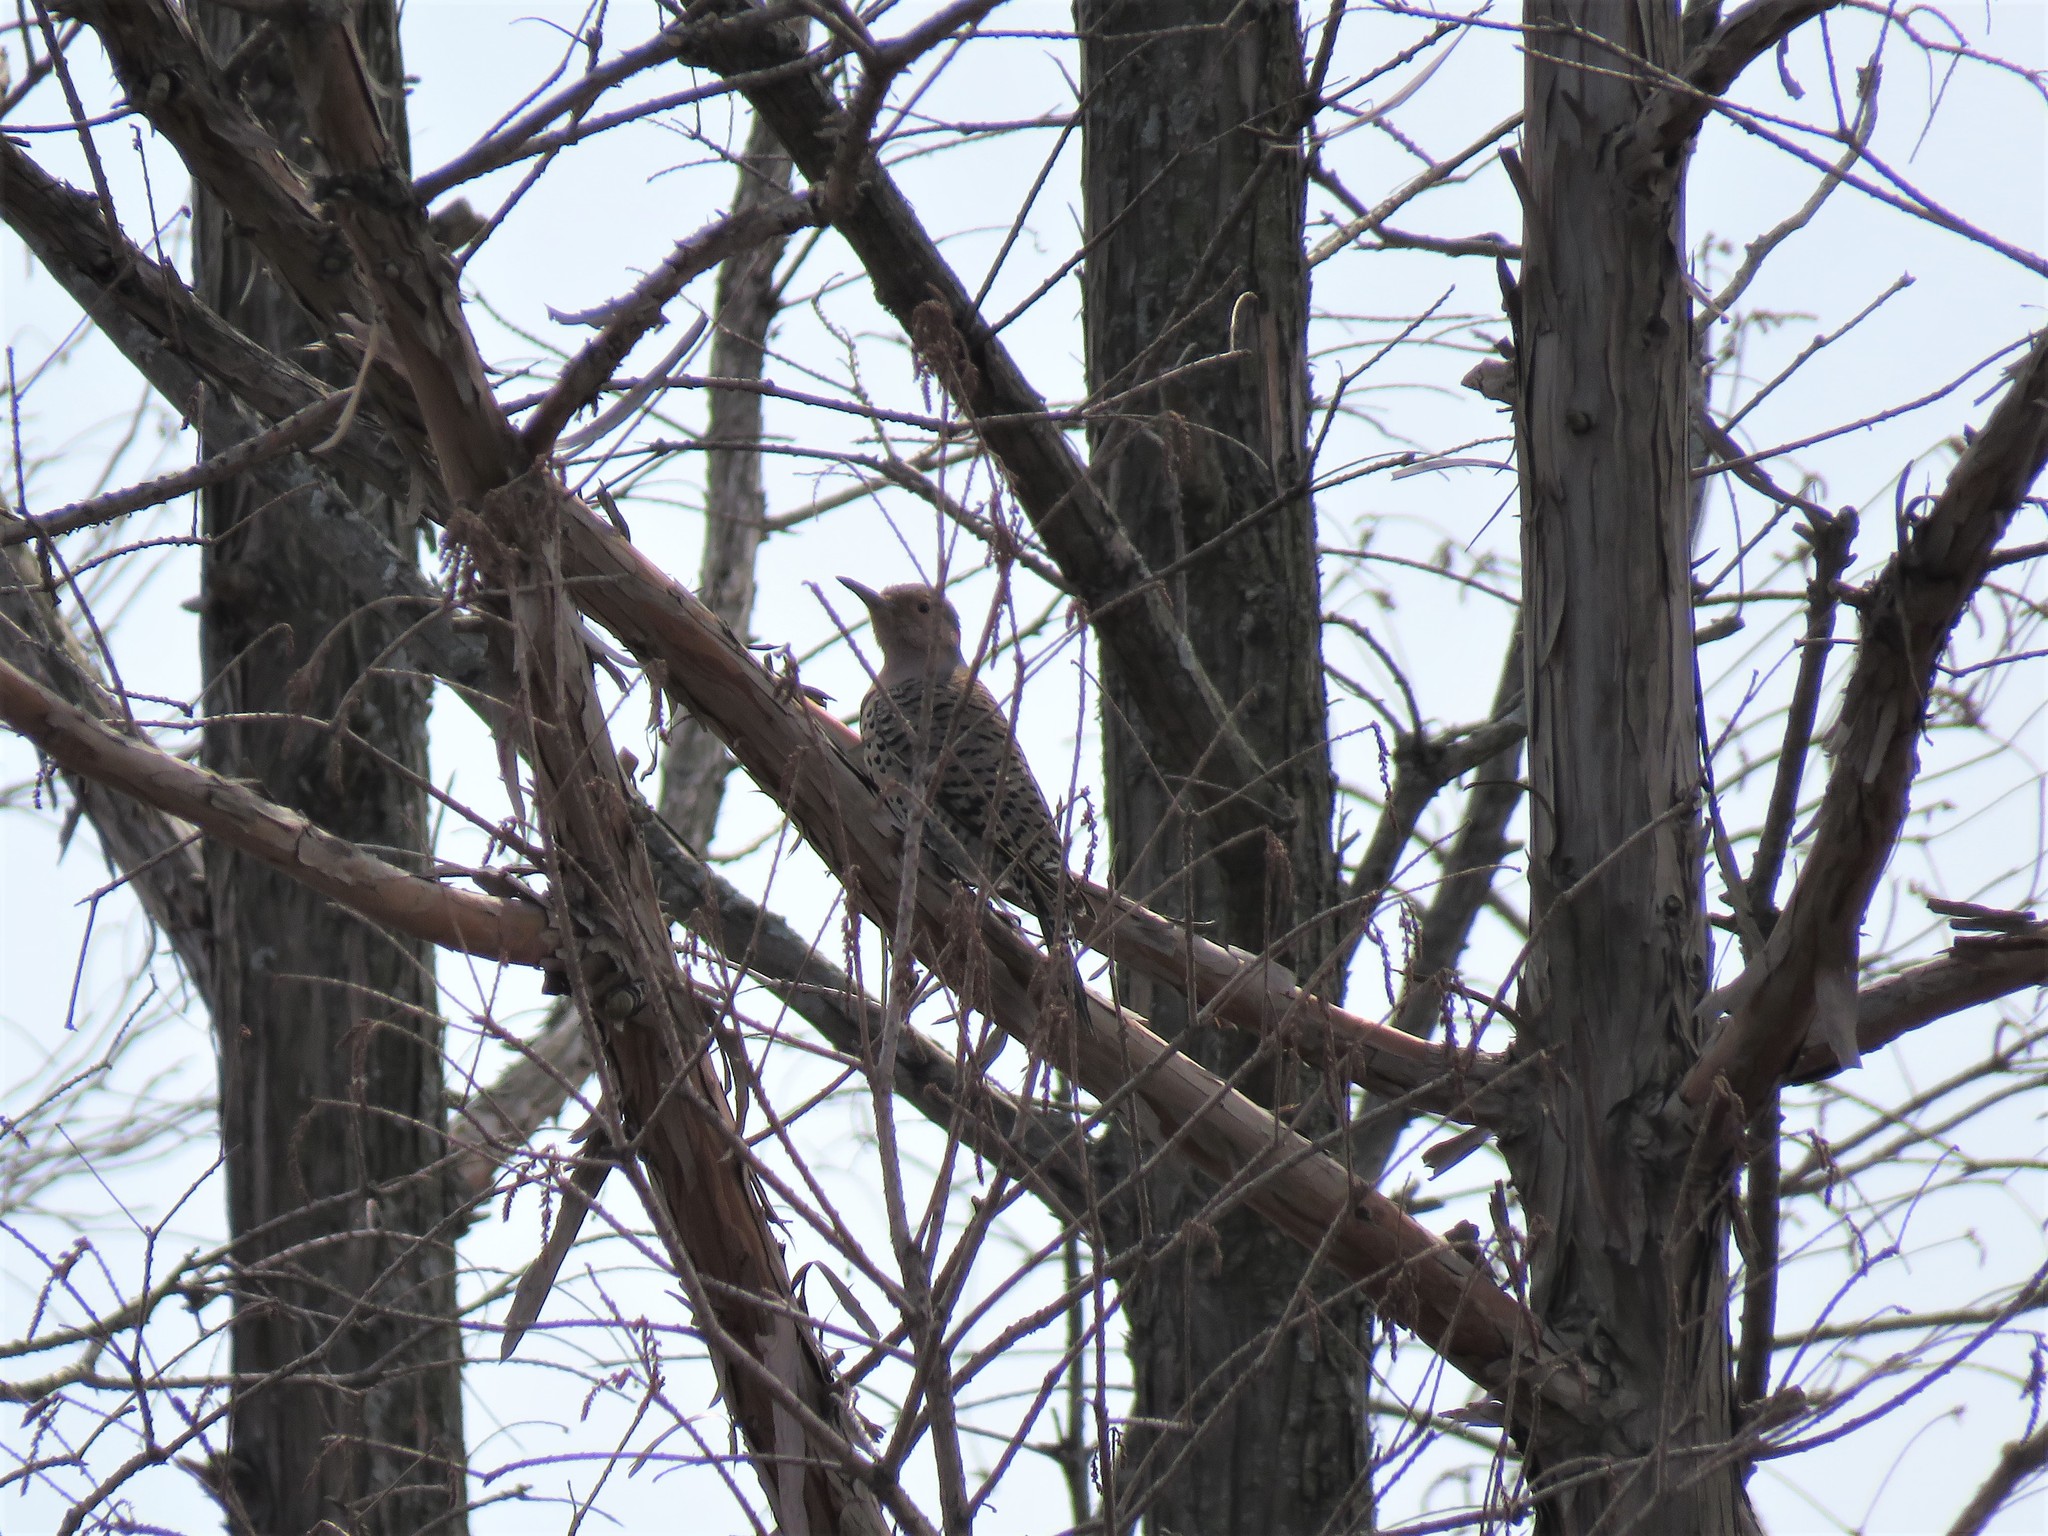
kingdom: Animalia
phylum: Chordata
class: Aves
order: Piciformes
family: Picidae
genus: Colaptes
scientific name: Colaptes auratus
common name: Northern flicker
